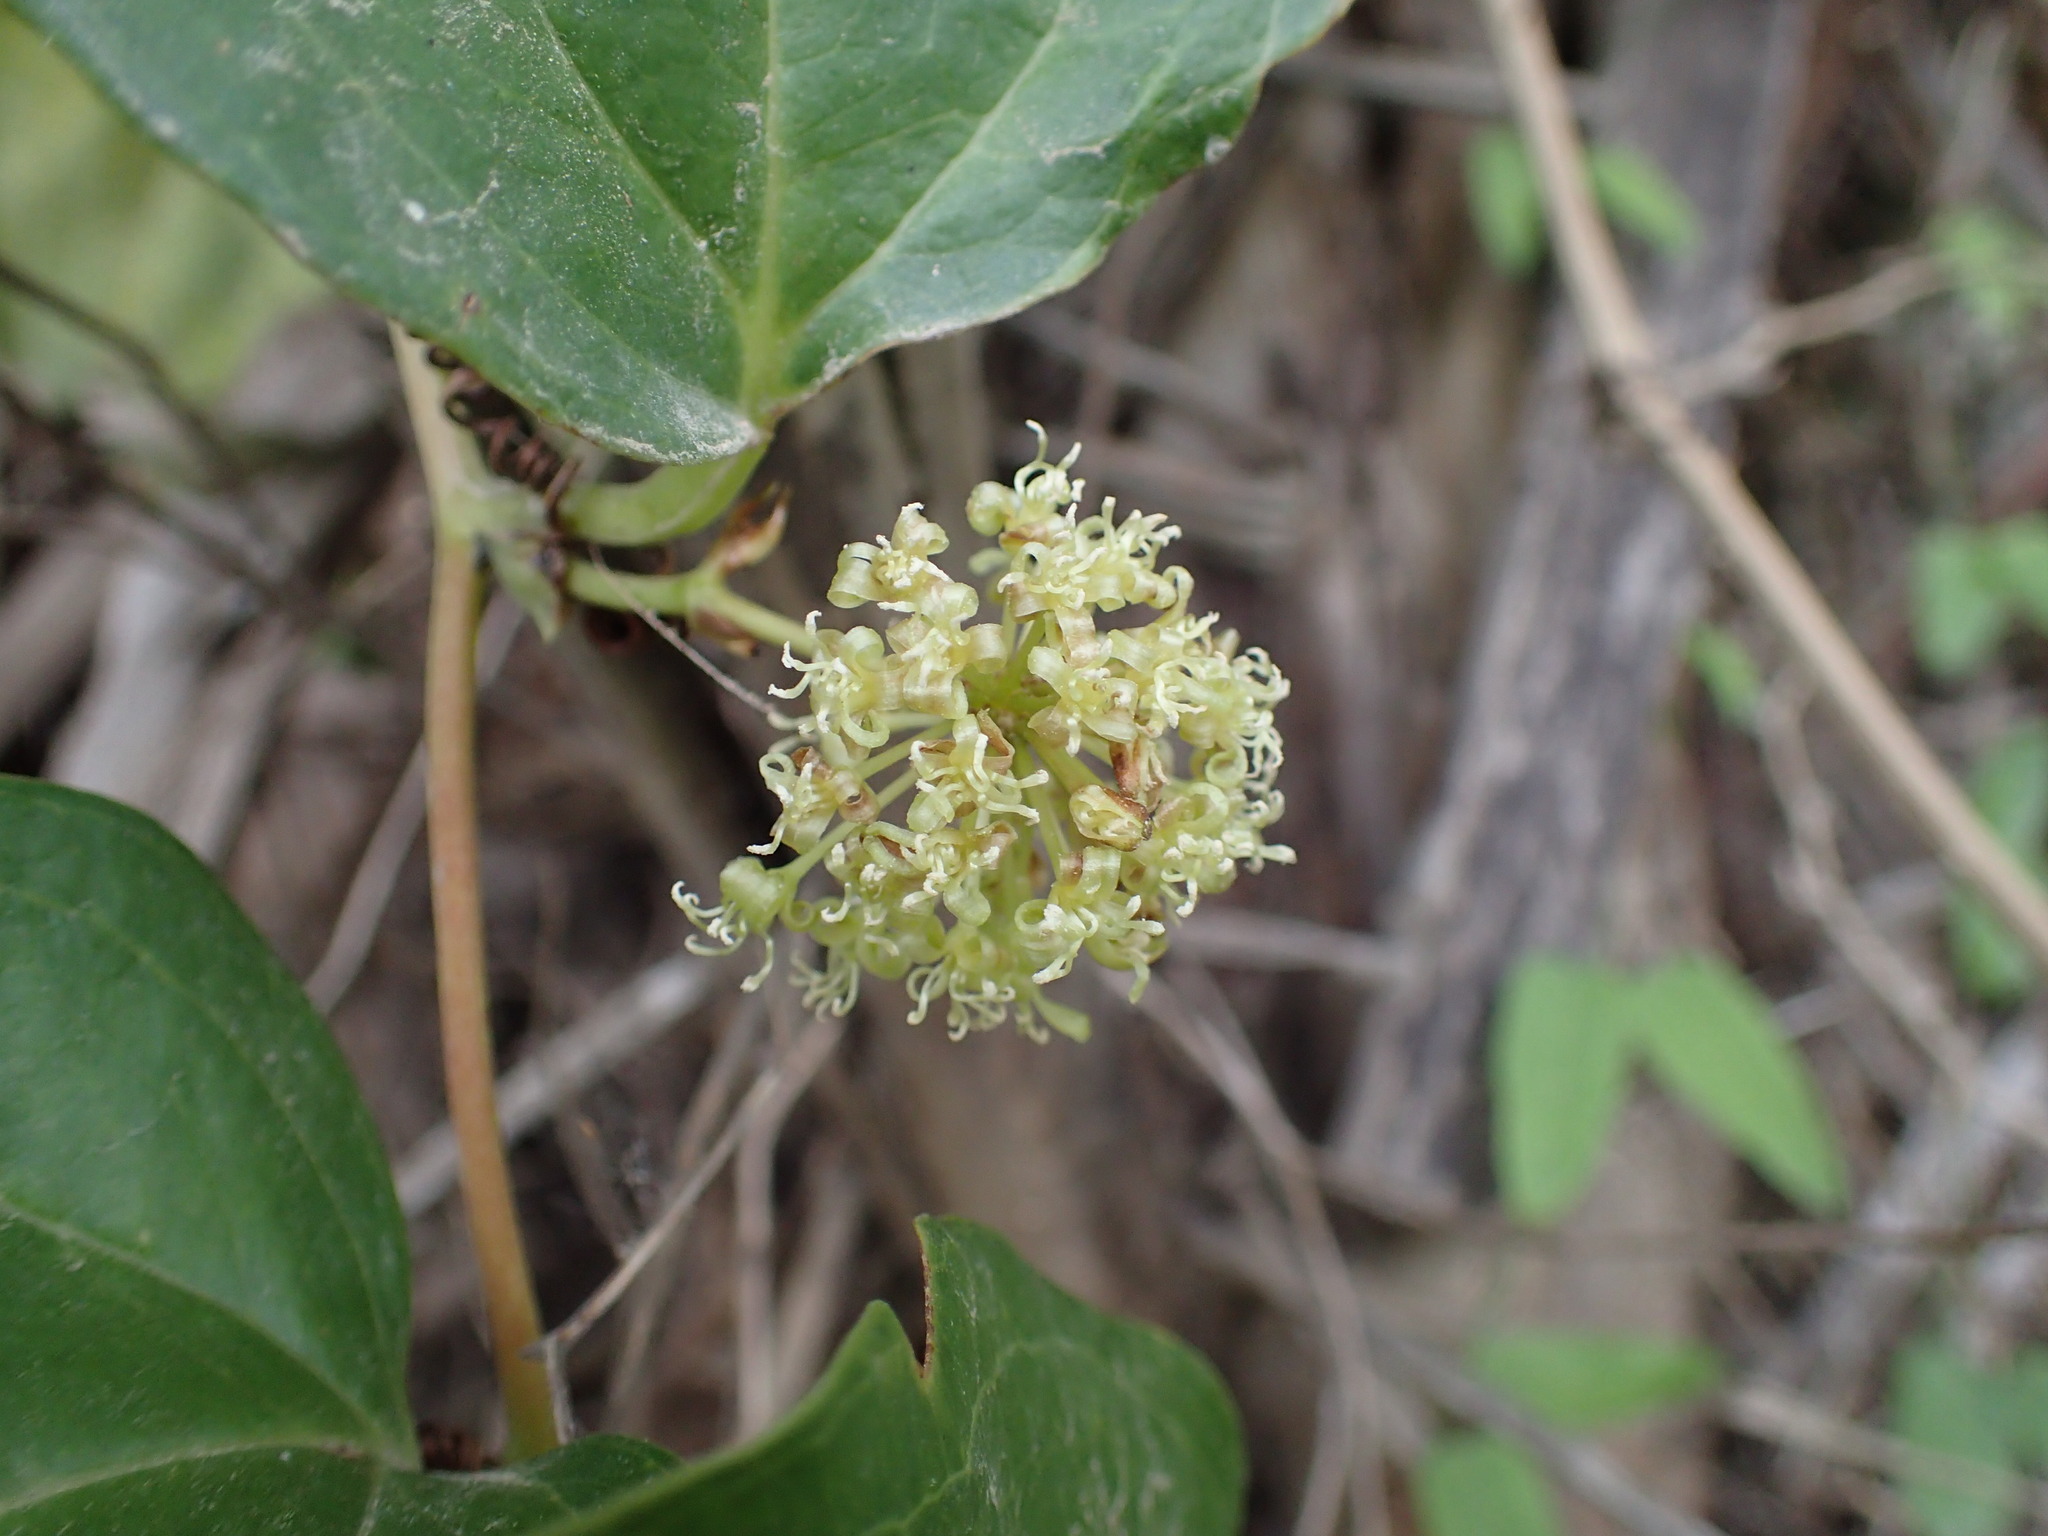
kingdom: Plantae
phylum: Tracheophyta
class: Liliopsida
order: Liliales
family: Smilacaceae
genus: Smilax
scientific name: Smilax anceps
